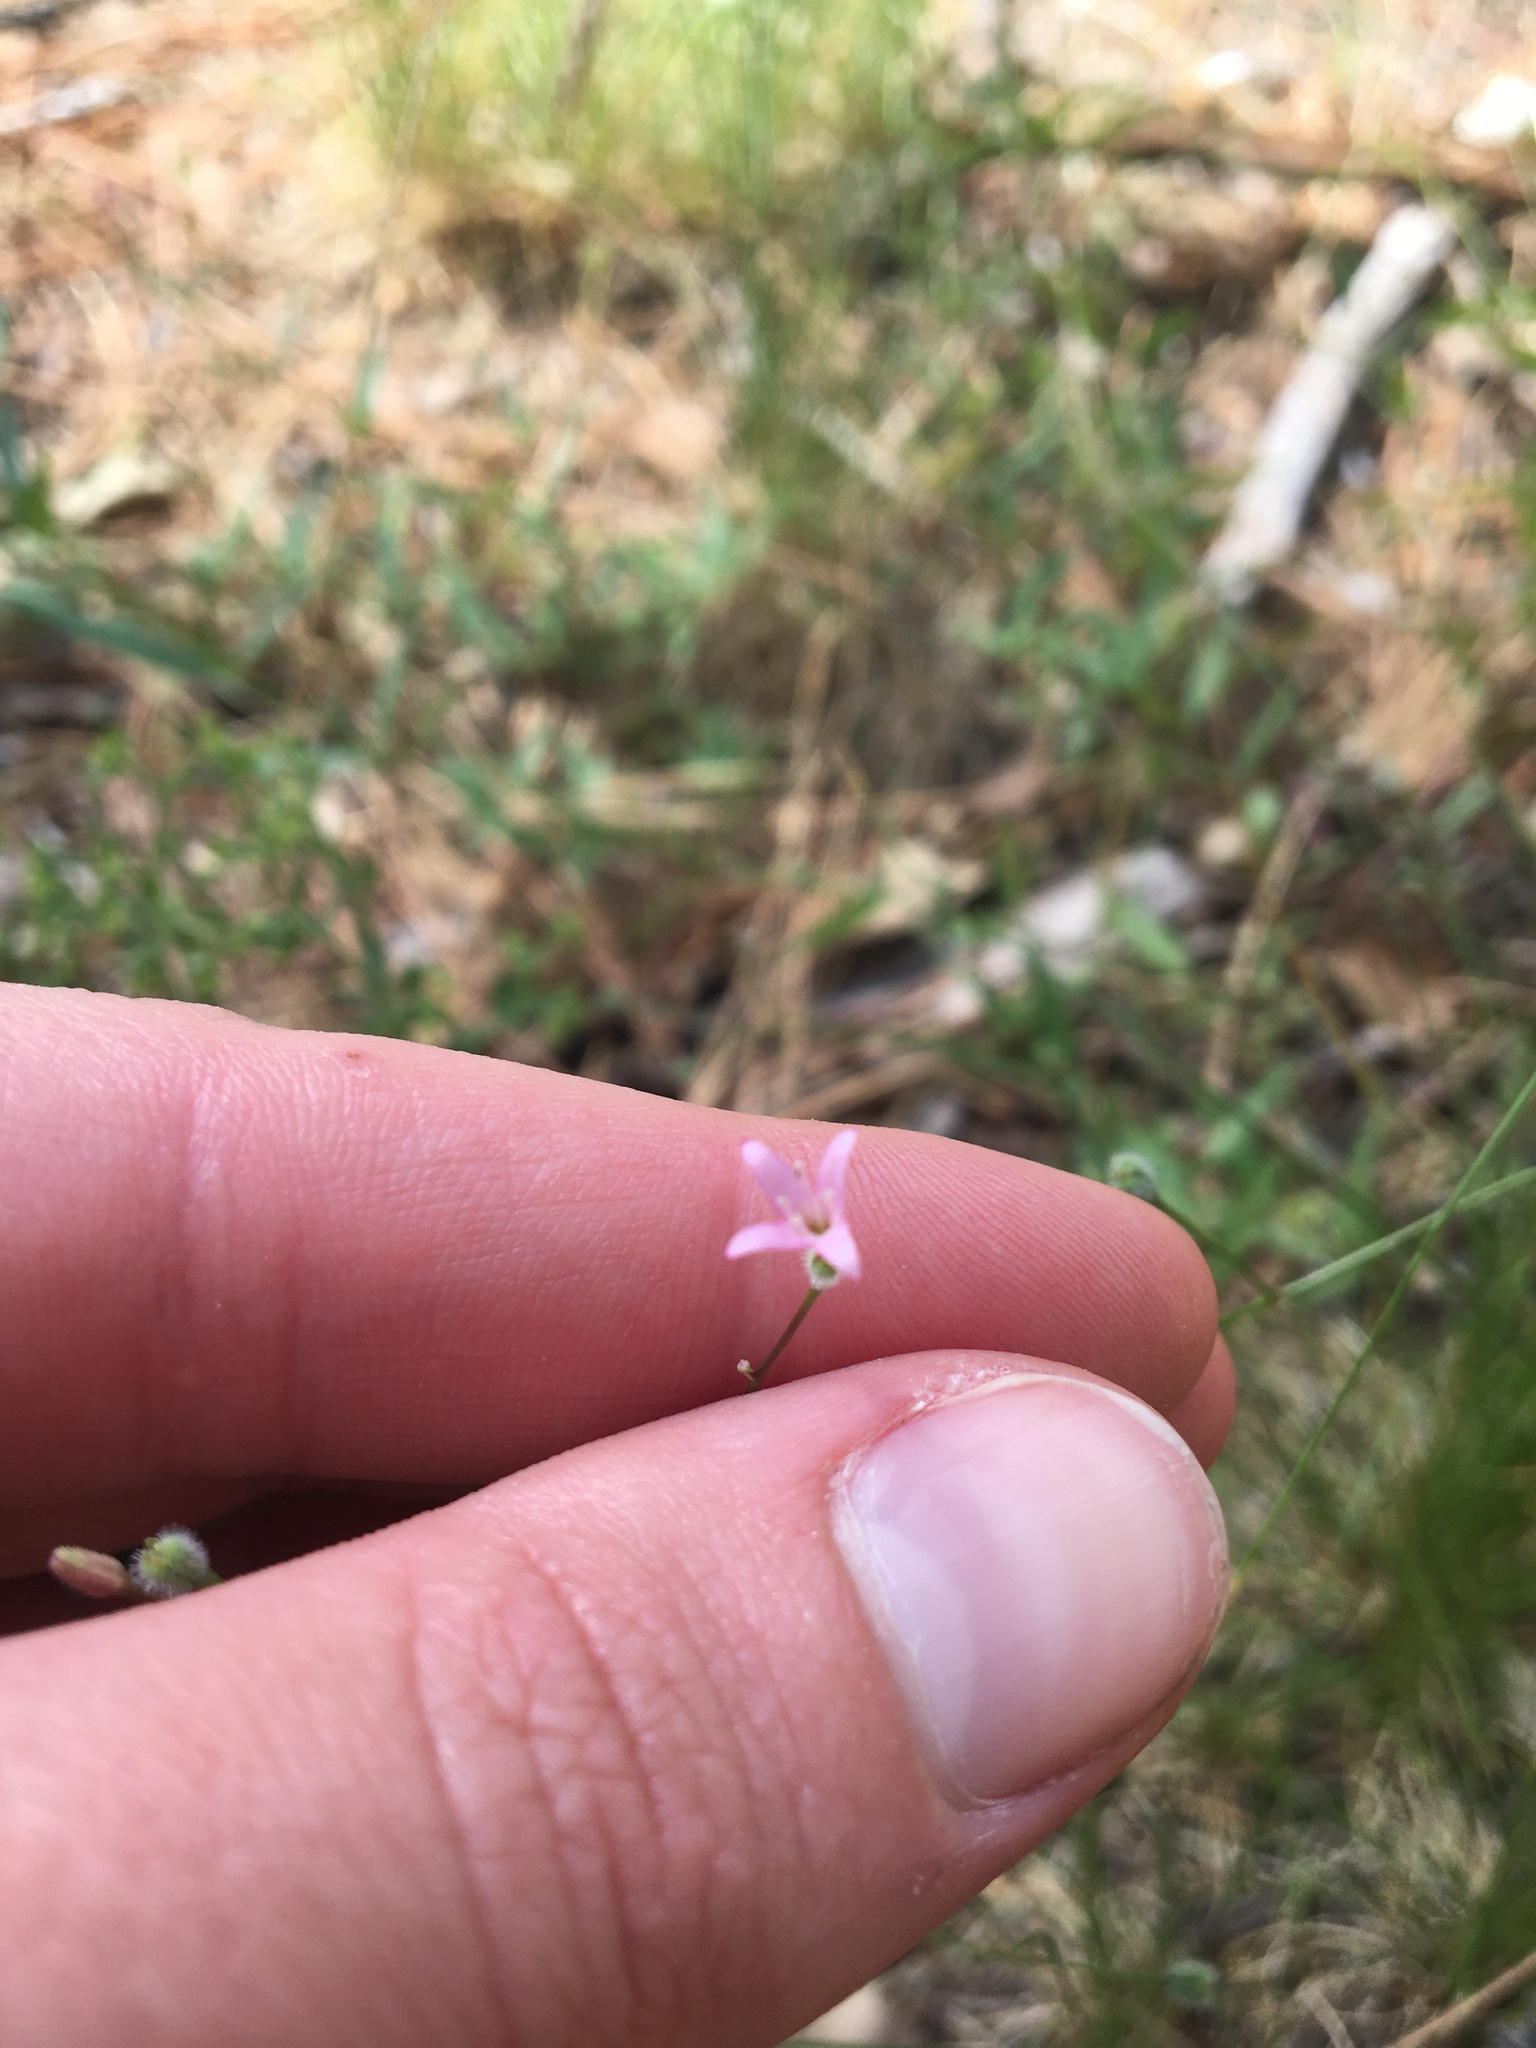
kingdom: Plantae
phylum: Tracheophyta
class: Magnoliopsida
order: Gentianales
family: Rubiaceae
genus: Kelloggia
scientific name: Kelloggia galioides
